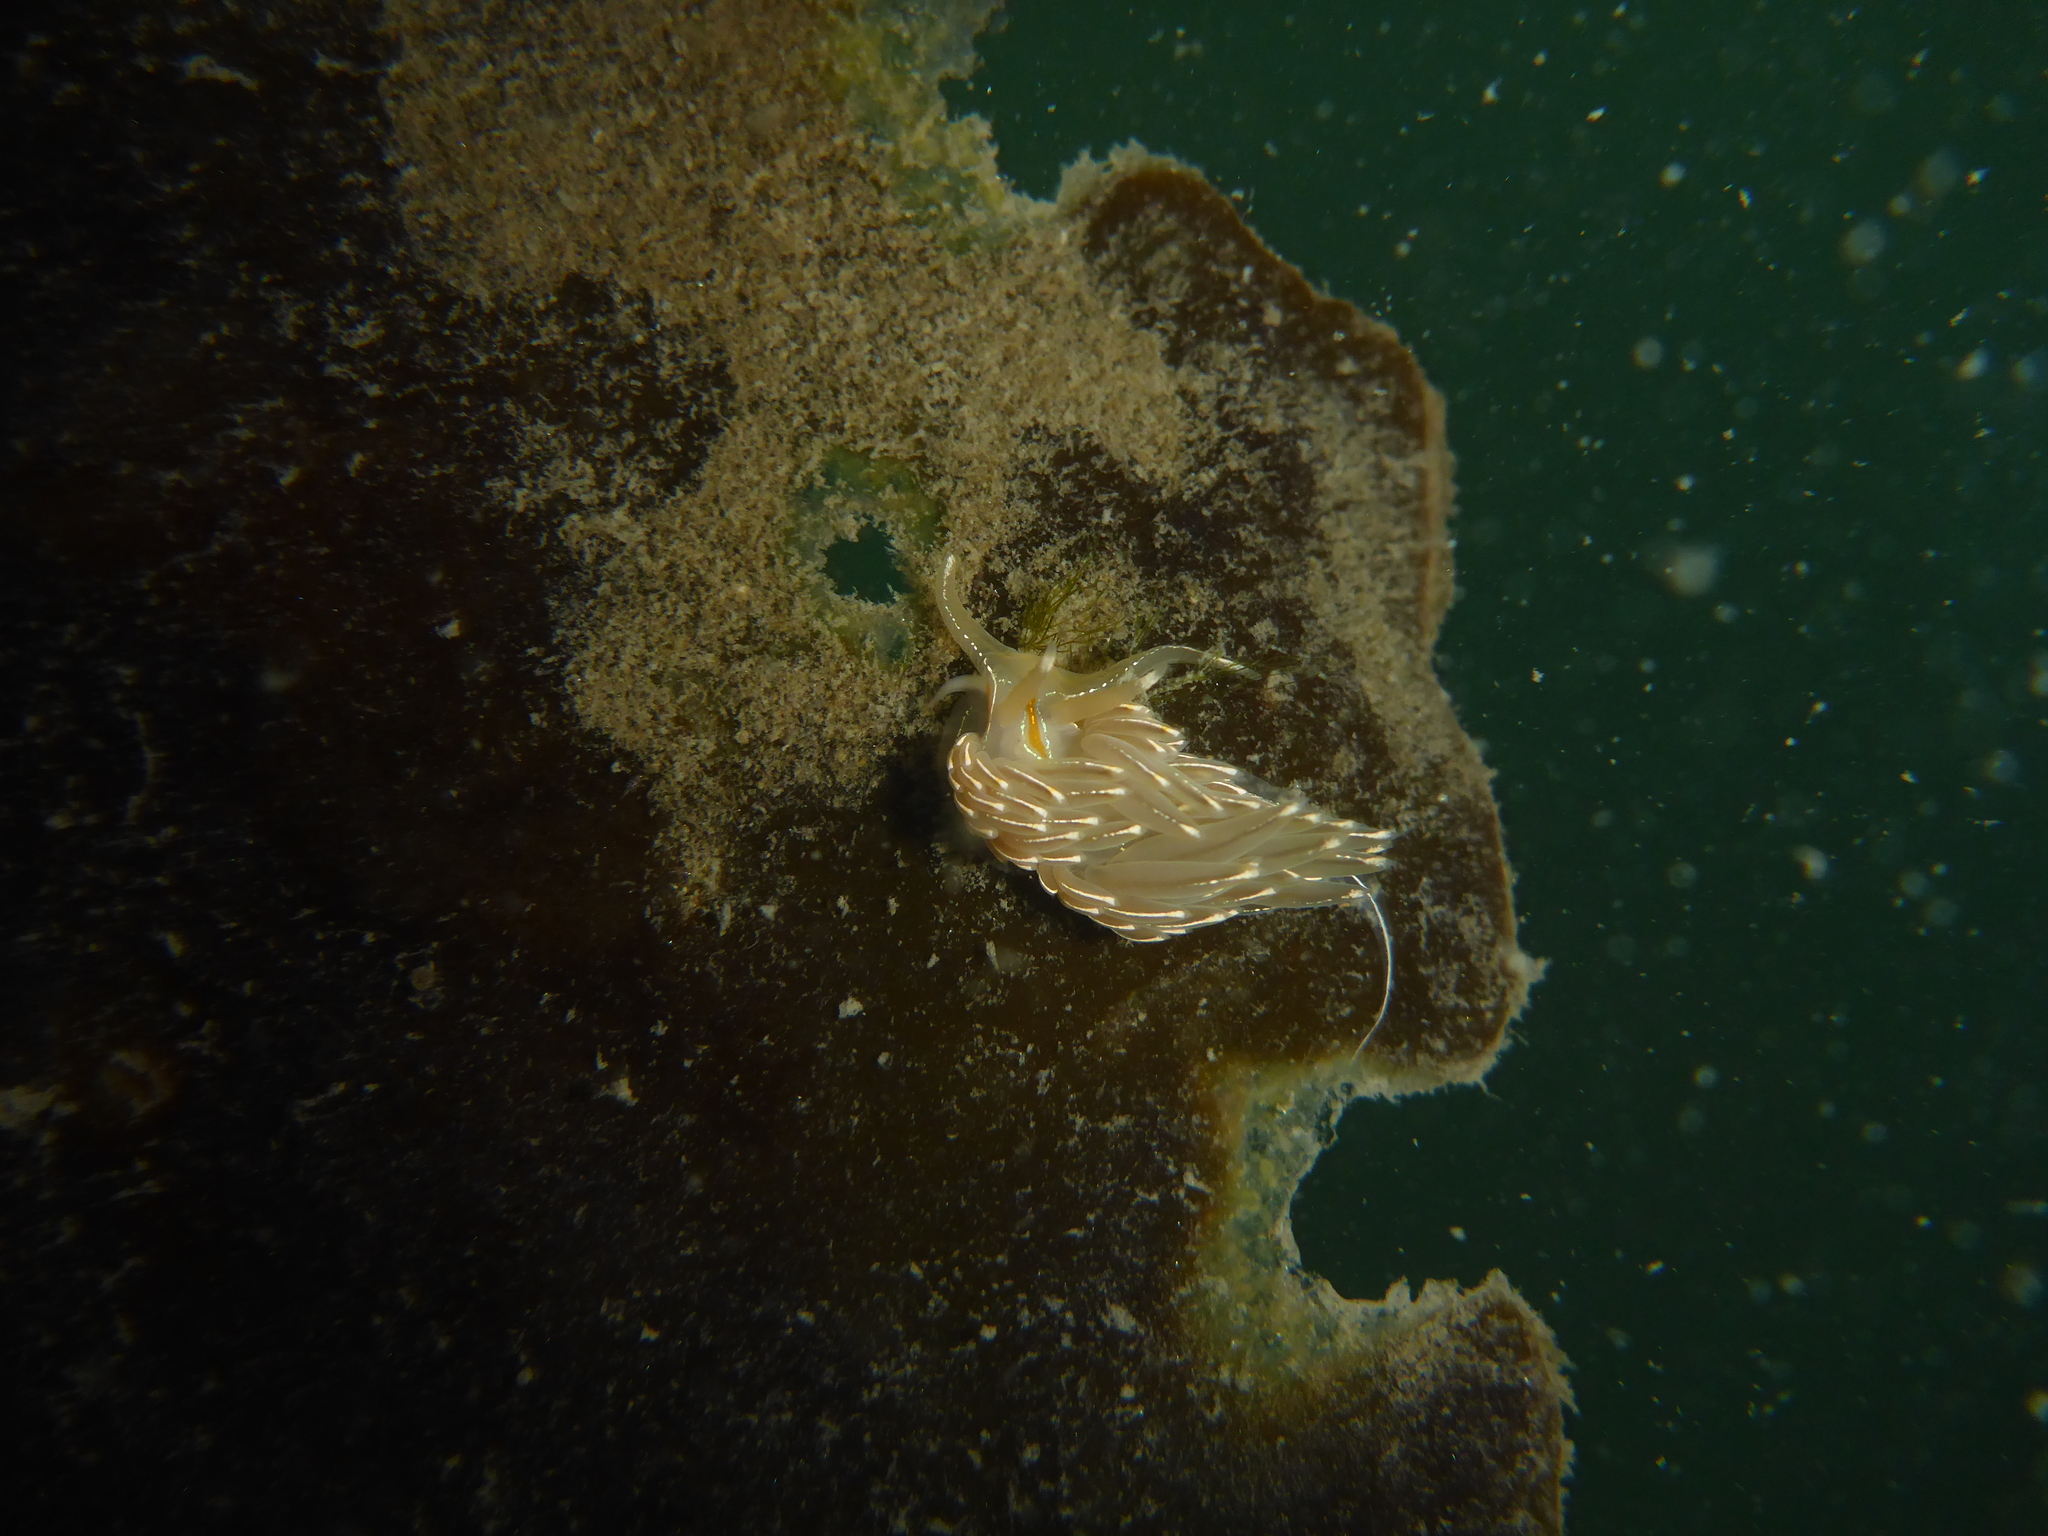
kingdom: Animalia
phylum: Mollusca
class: Gastropoda
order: Nudibranchia
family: Myrrhinidae
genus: Hermissenda
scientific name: Hermissenda crassicornis
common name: Hermissenda
